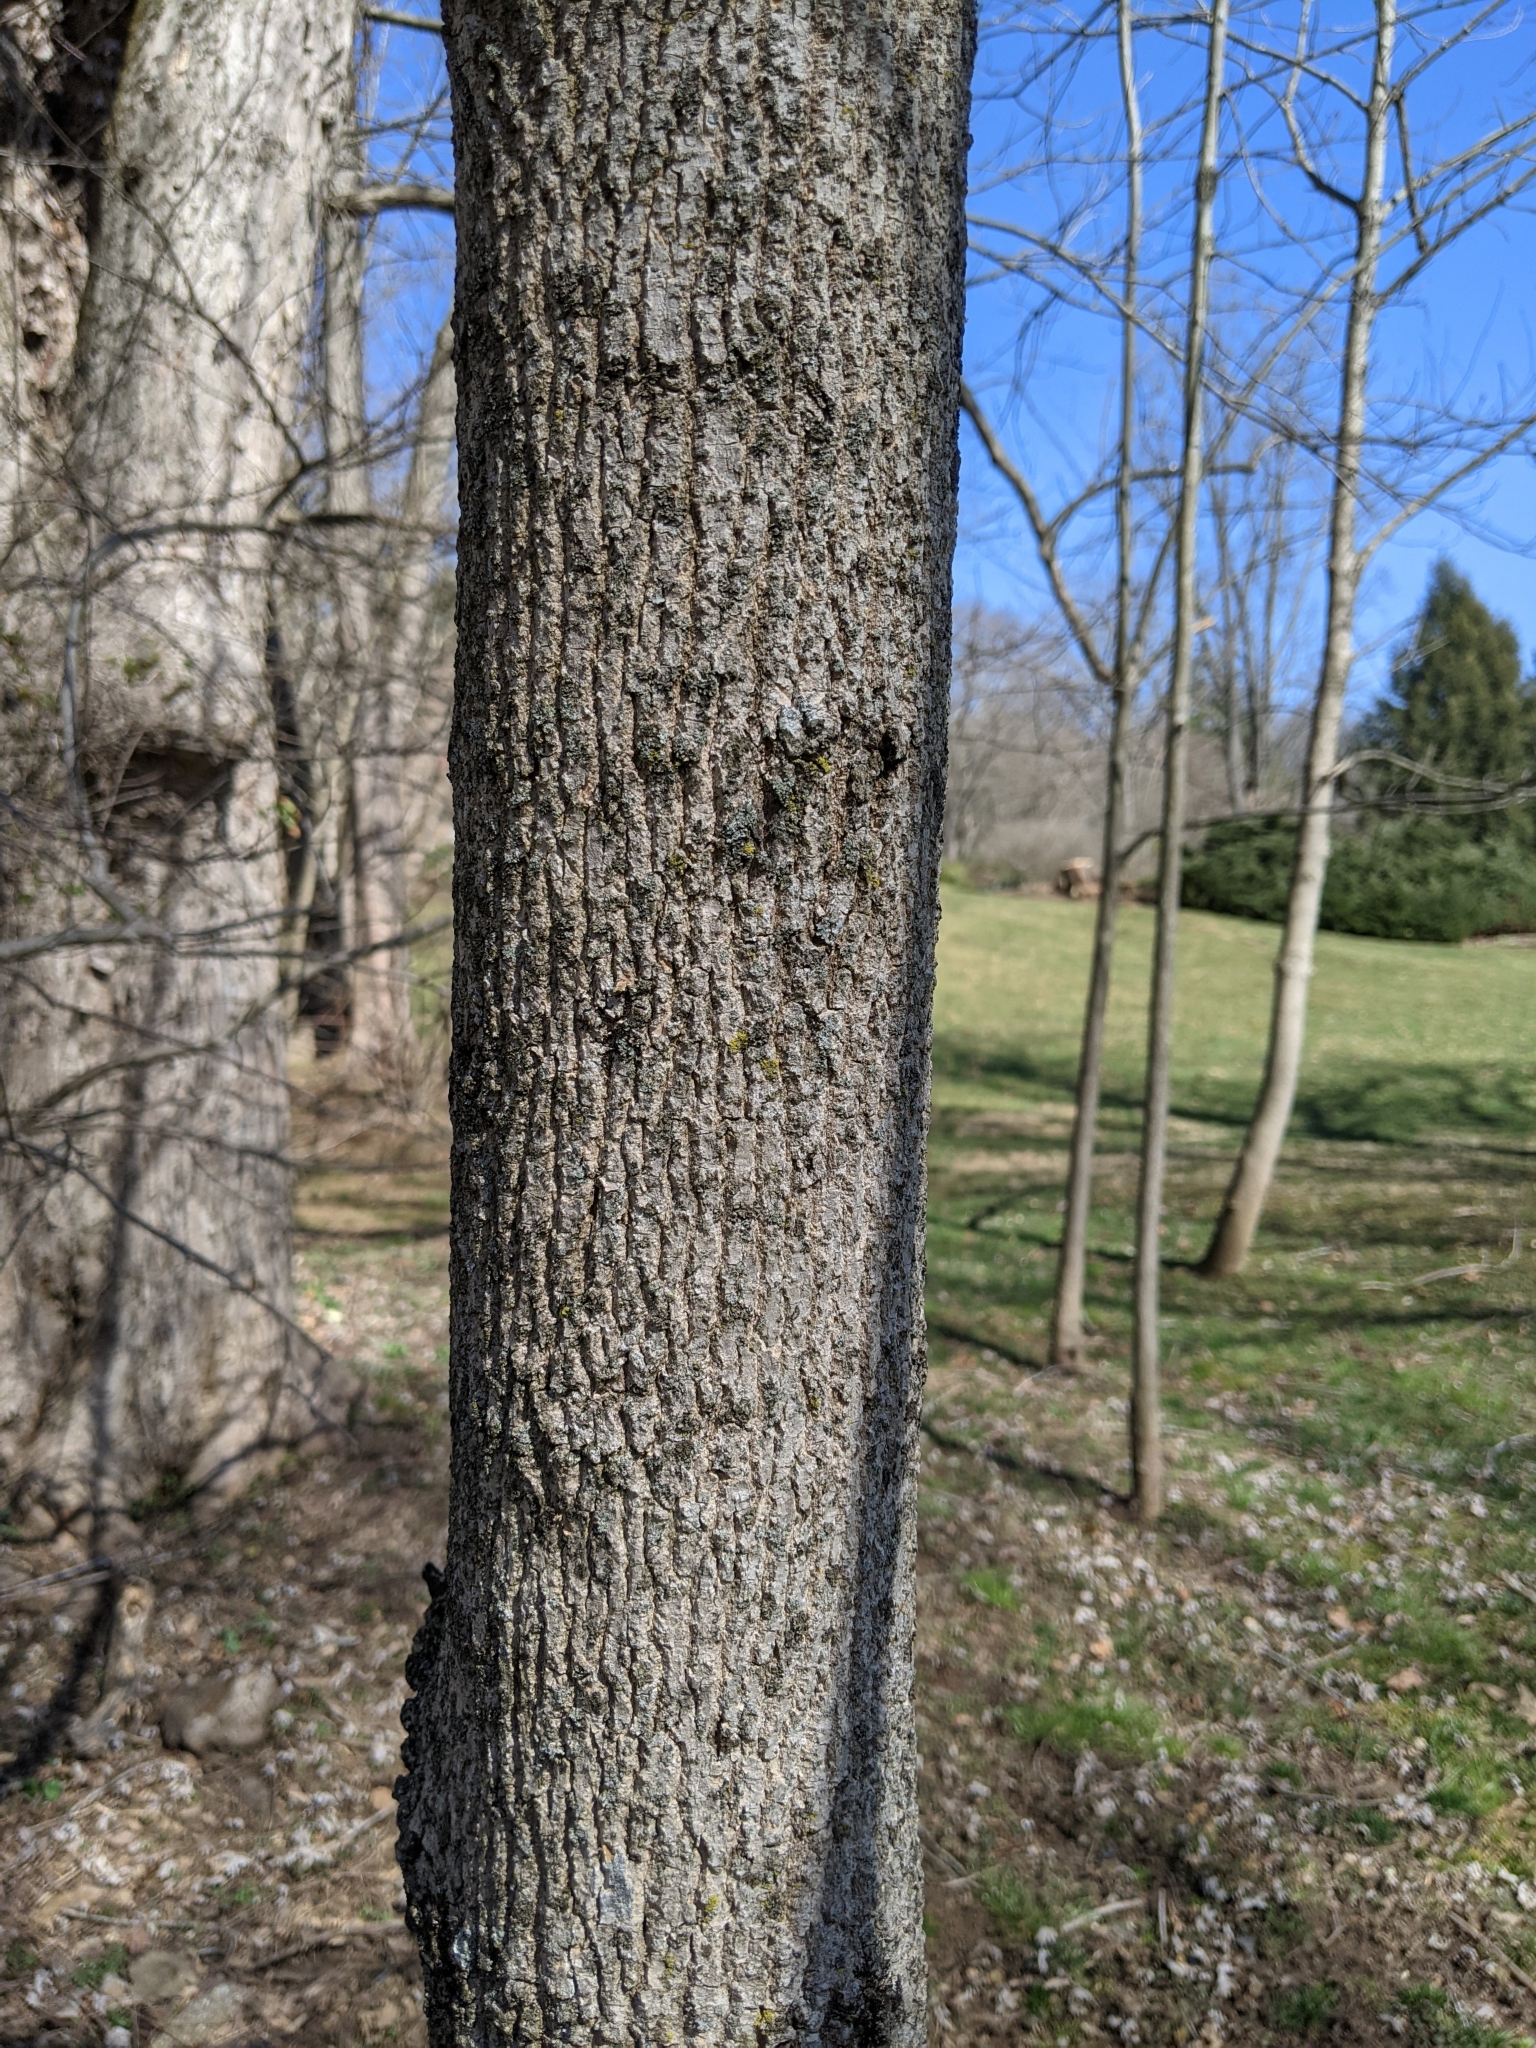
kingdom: Plantae
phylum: Tracheophyta
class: Magnoliopsida
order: Lamiales
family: Oleaceae
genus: Fraxinus
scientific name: Fraxinus americana
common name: White ash
